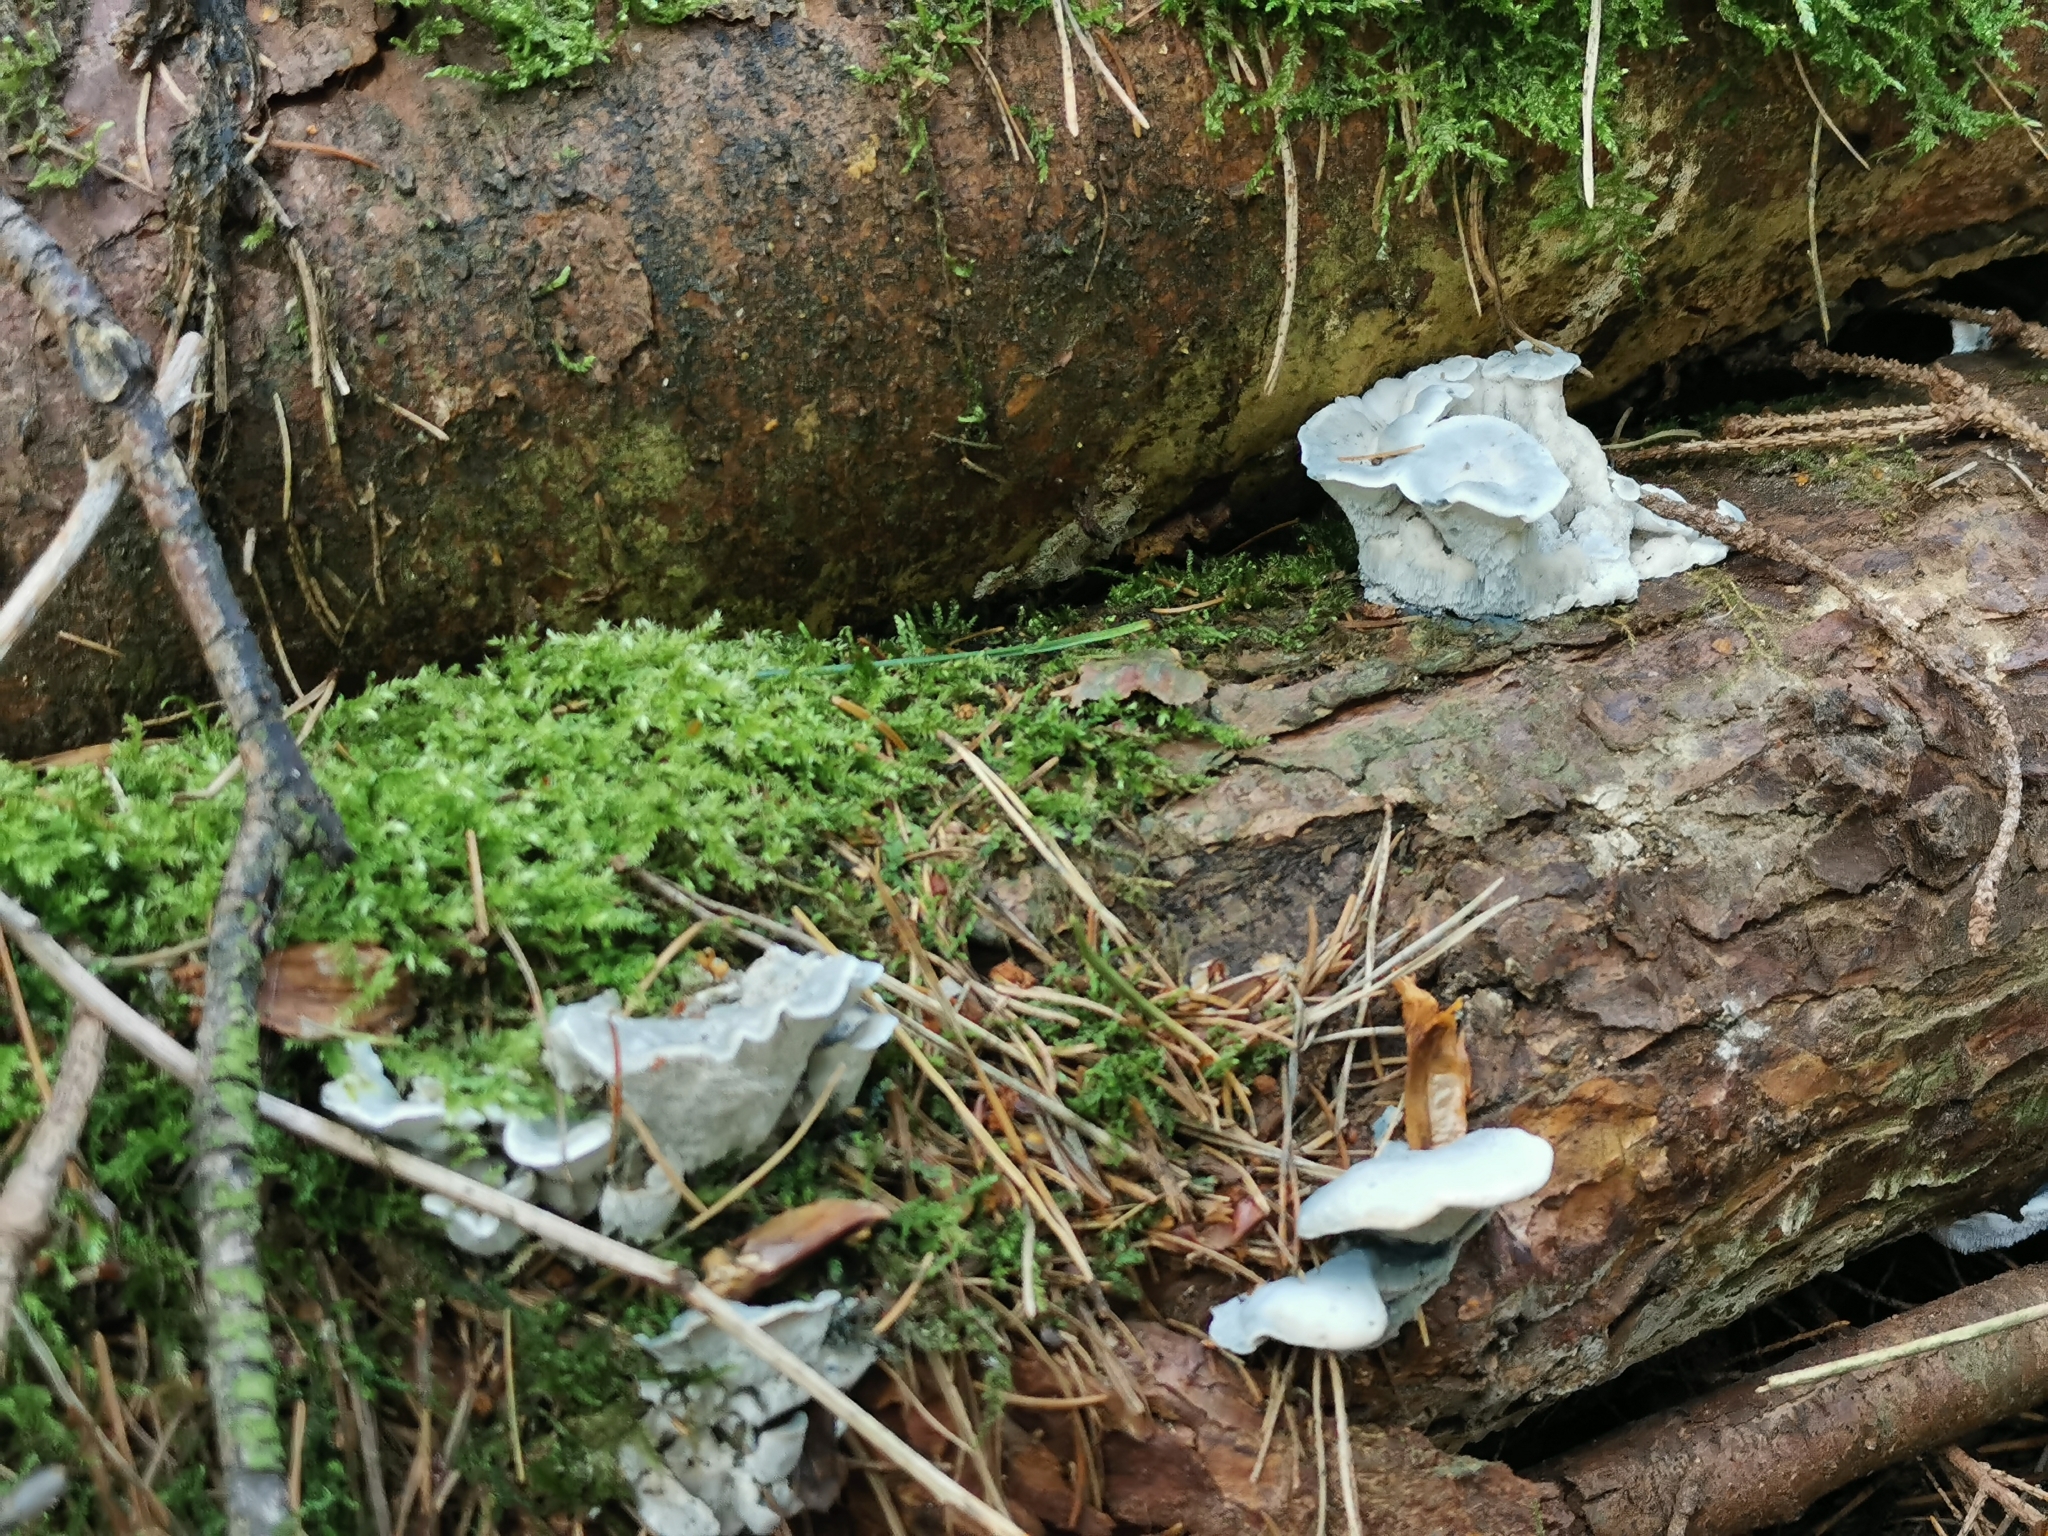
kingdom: Fungi
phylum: Basidiomycota
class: Agaricomycetes
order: Polyporales
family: Polyporaceae
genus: Cyanosporus
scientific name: Cyanosporus caesius
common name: Blue cheese polypore
